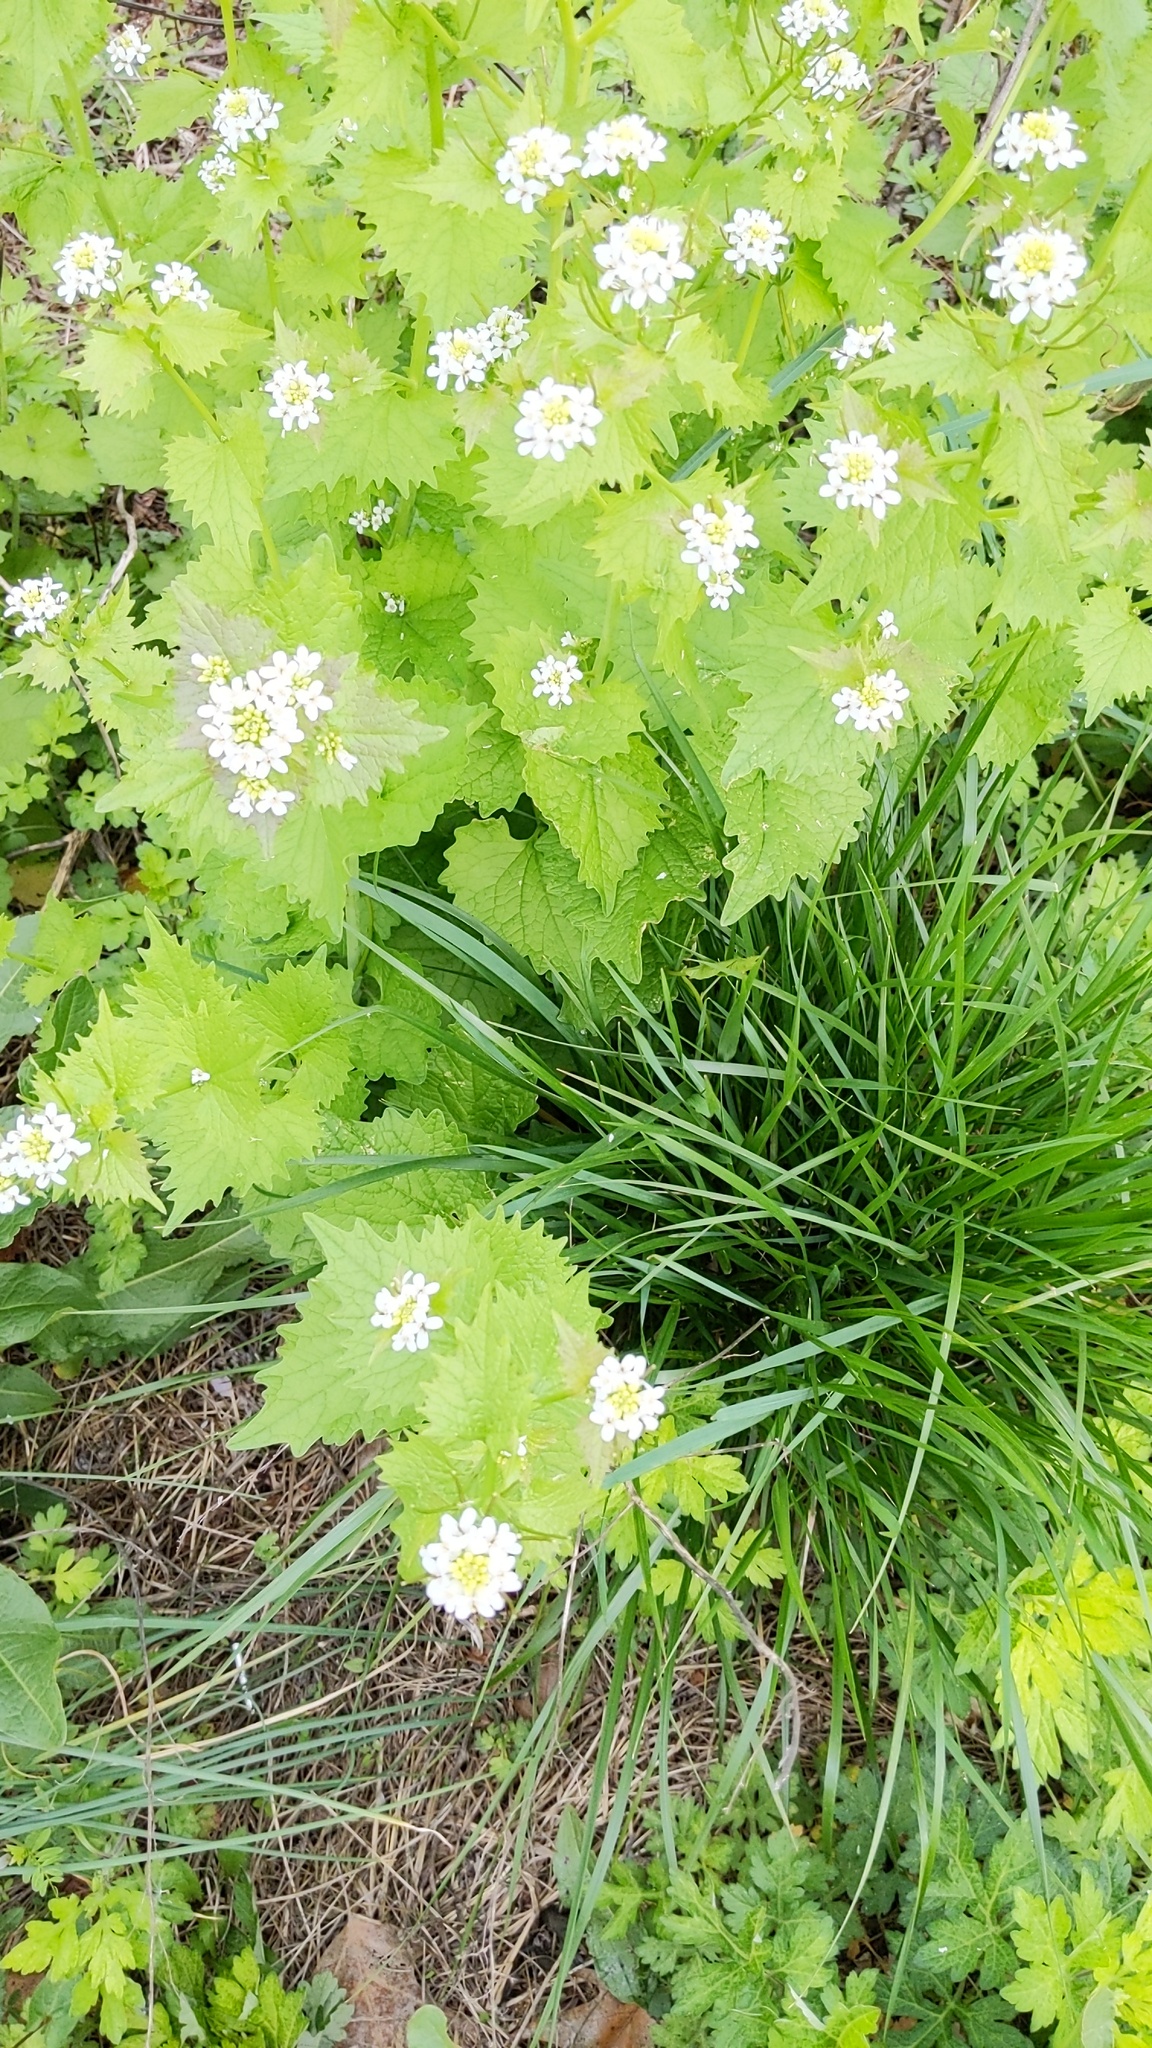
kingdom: Plantae
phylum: Tracheophyta
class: Magnoliopsida
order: Brassicales
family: Brassicaceae
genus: Alliaria
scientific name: Alliaria petiolata
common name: Garlic mustard
